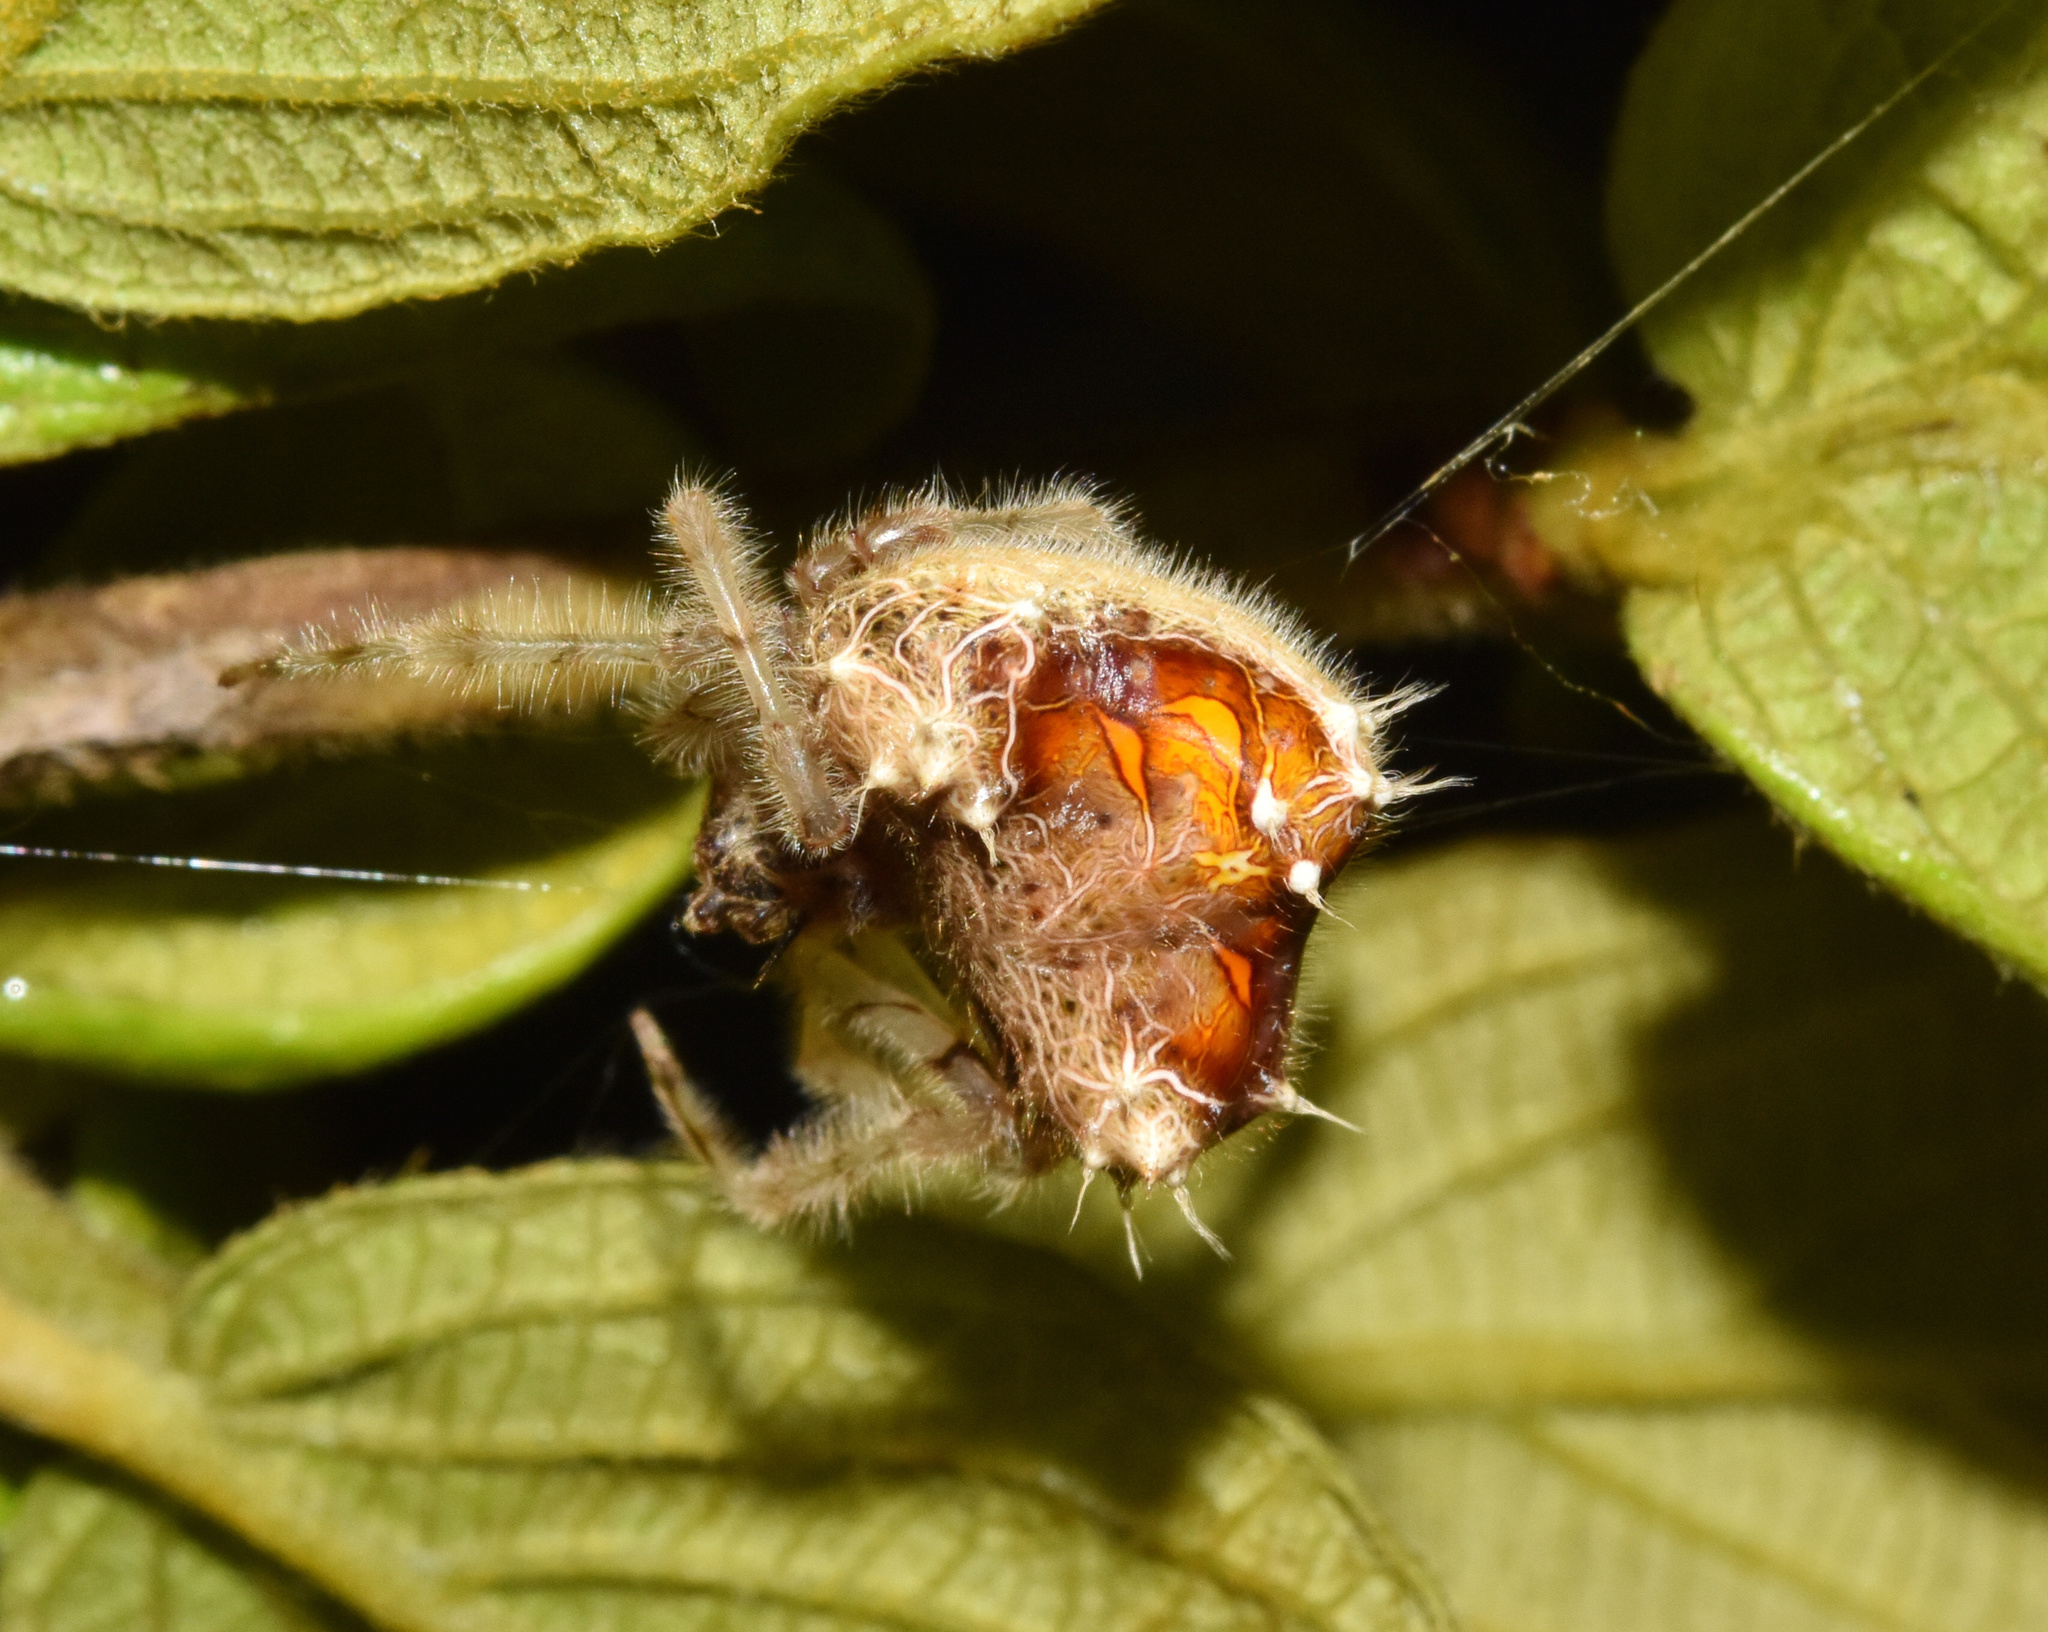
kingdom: Animalia
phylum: Arthropoda
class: Arachnida
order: Araneae
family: Araneidae
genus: Cladomelea
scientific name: Cladomelea debeeri
